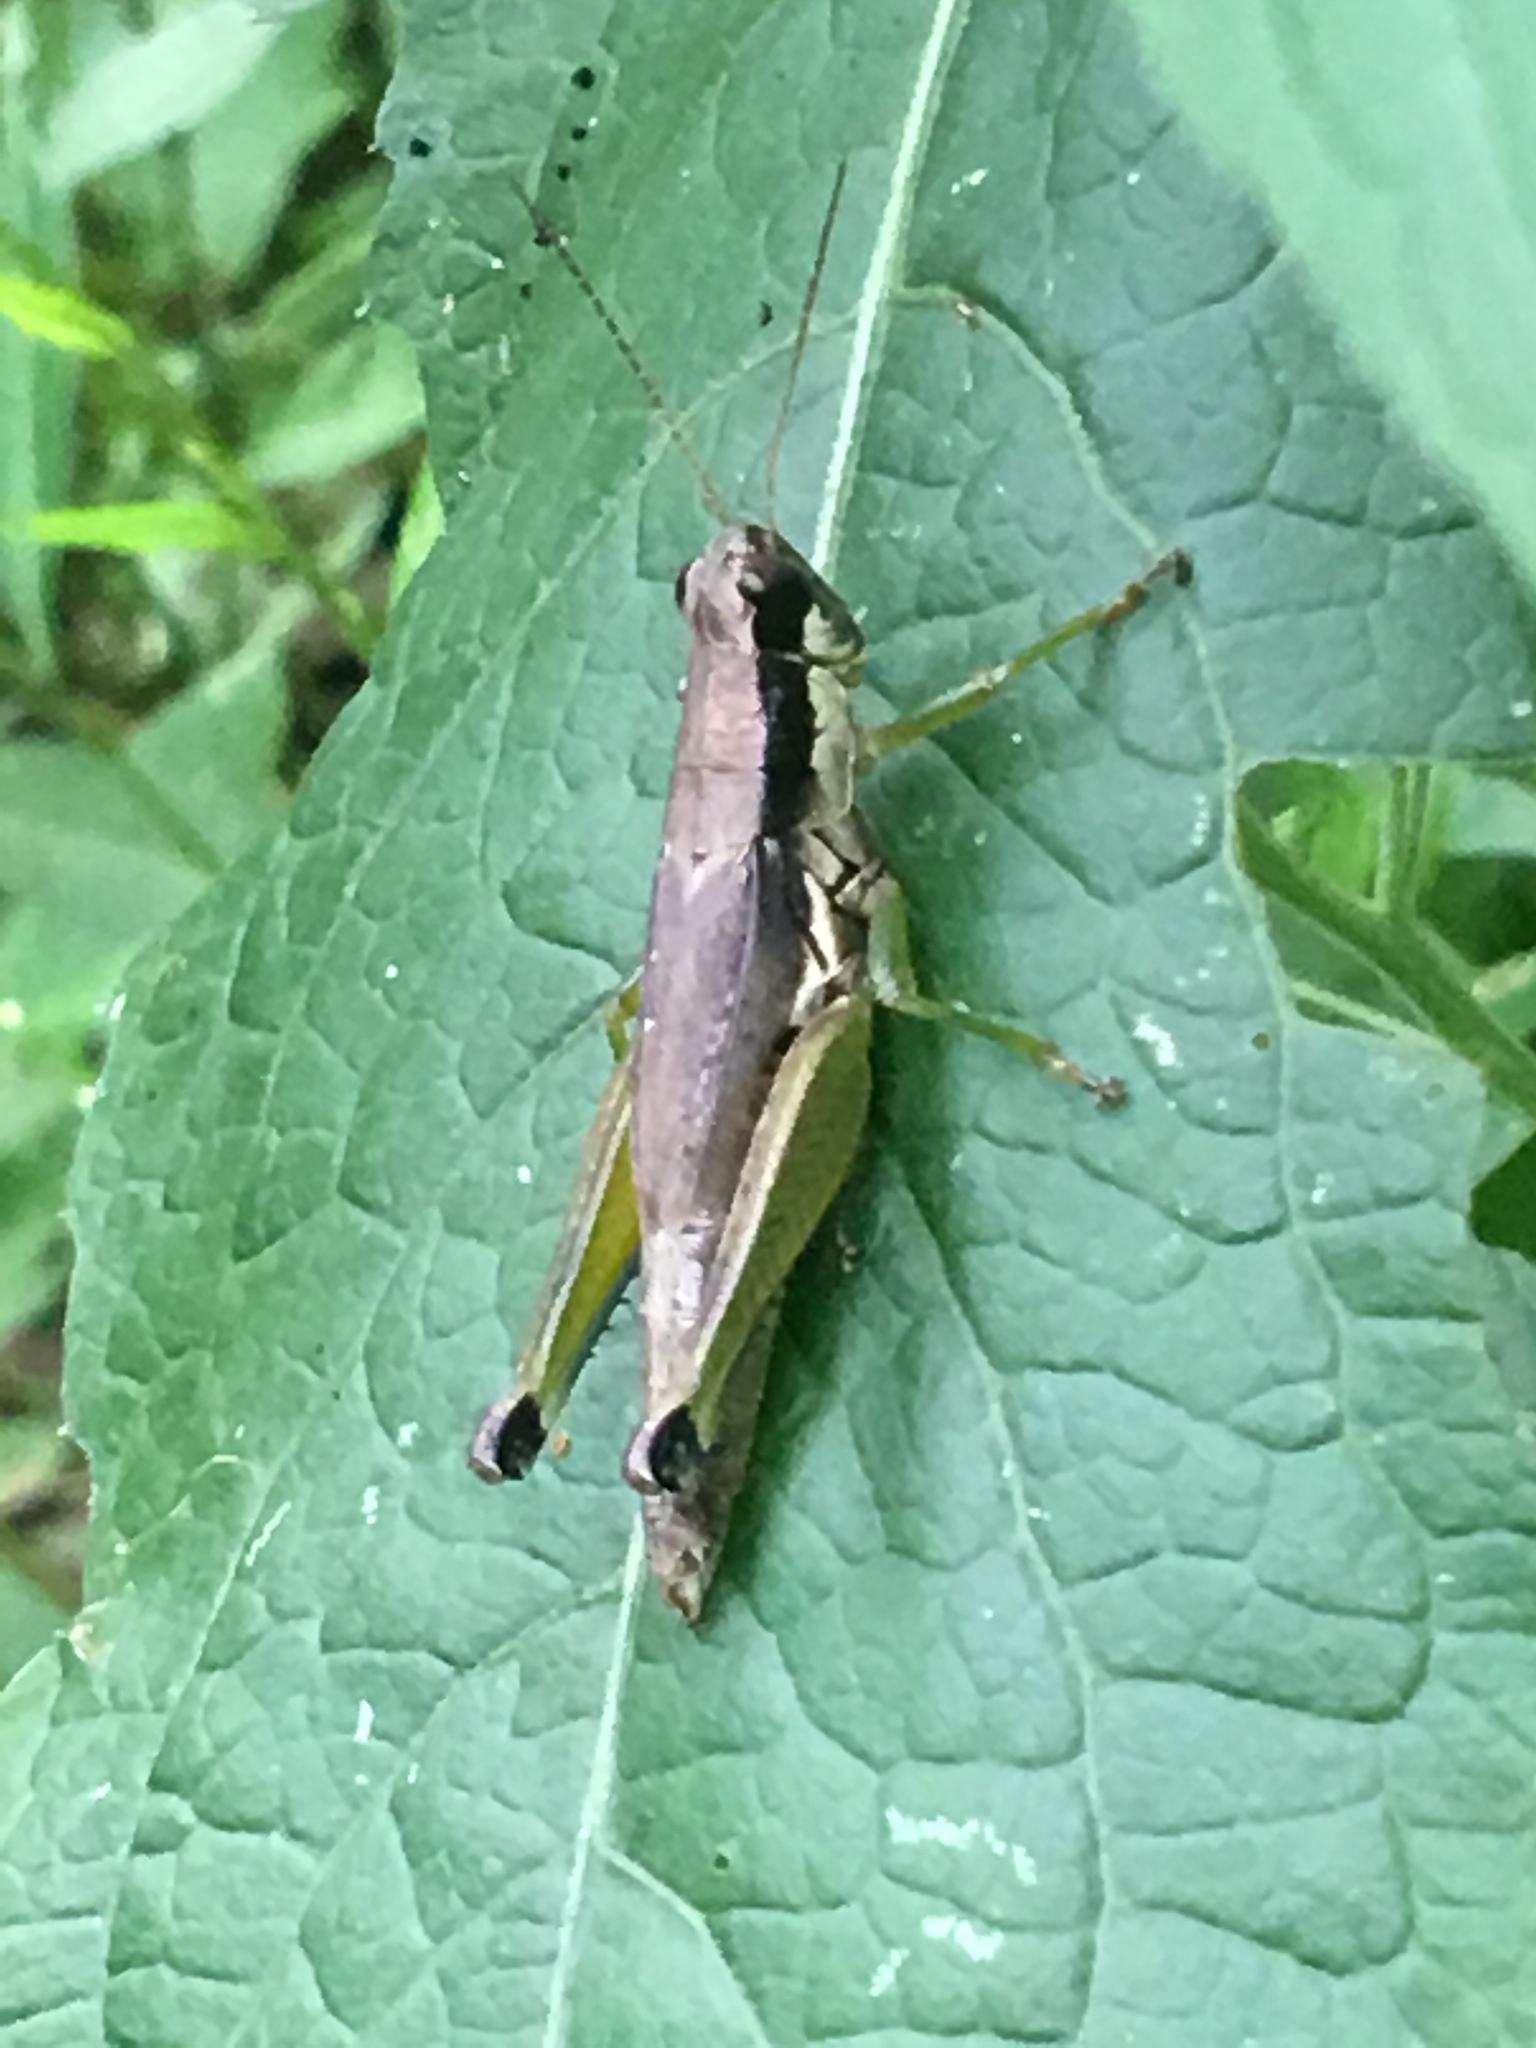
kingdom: Animalia
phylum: Arthropoda
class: Insecta
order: Orthoptera
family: Acrididae
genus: Paroxya
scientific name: Paroxya clavuligera
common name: Olive-green swamp grasshopper
